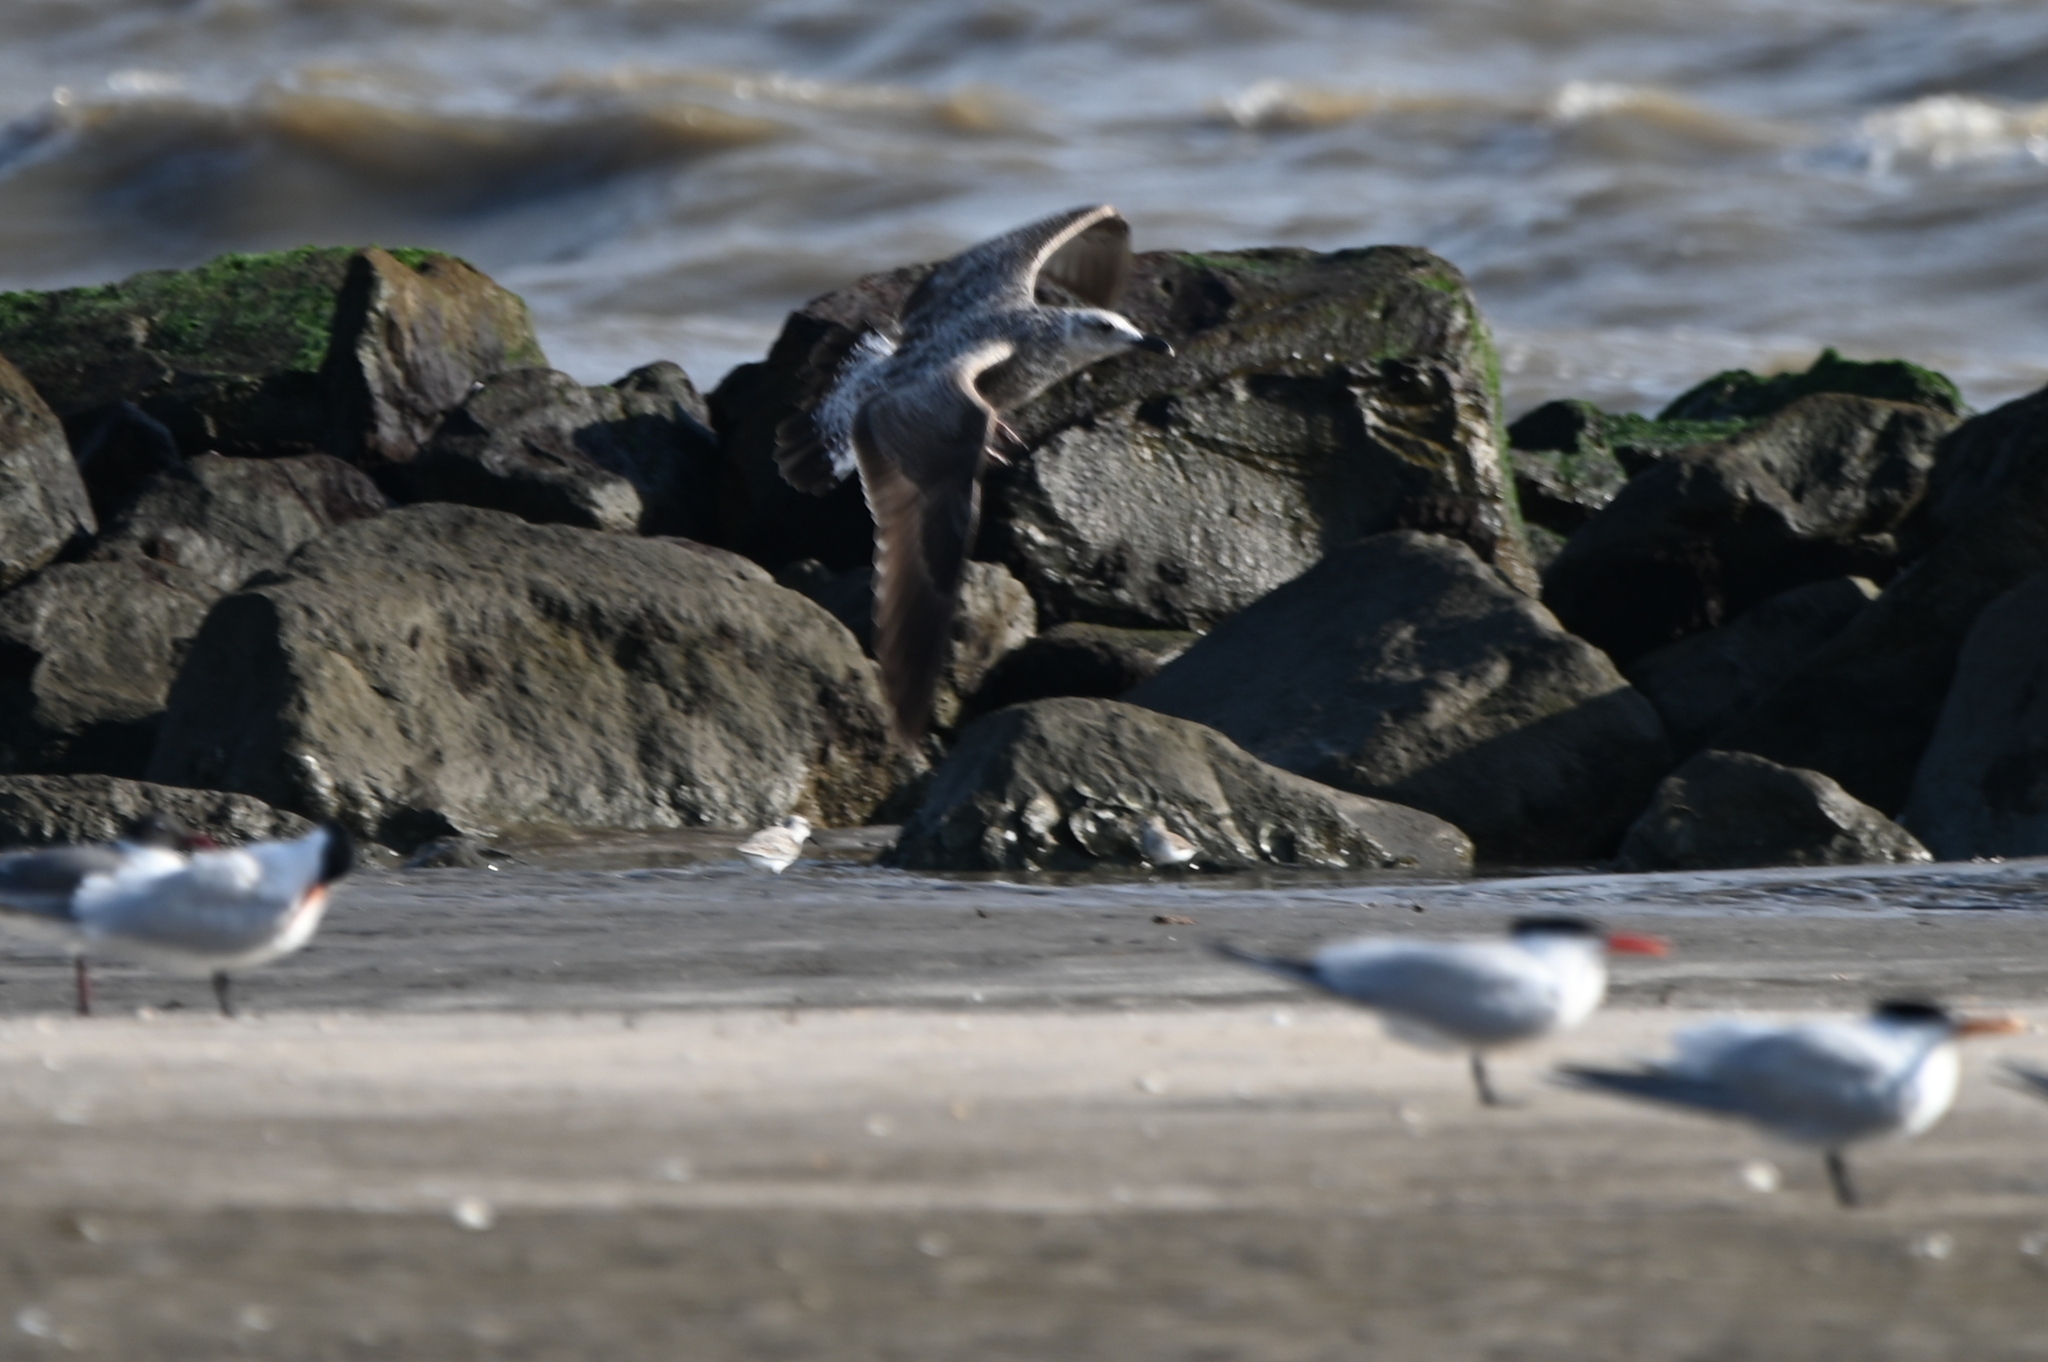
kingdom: Animalia
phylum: Chordata
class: Aves
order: Charadriiformes
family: Laridae
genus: Larus
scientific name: Larus fuscus
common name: Lesser black-backed gull
